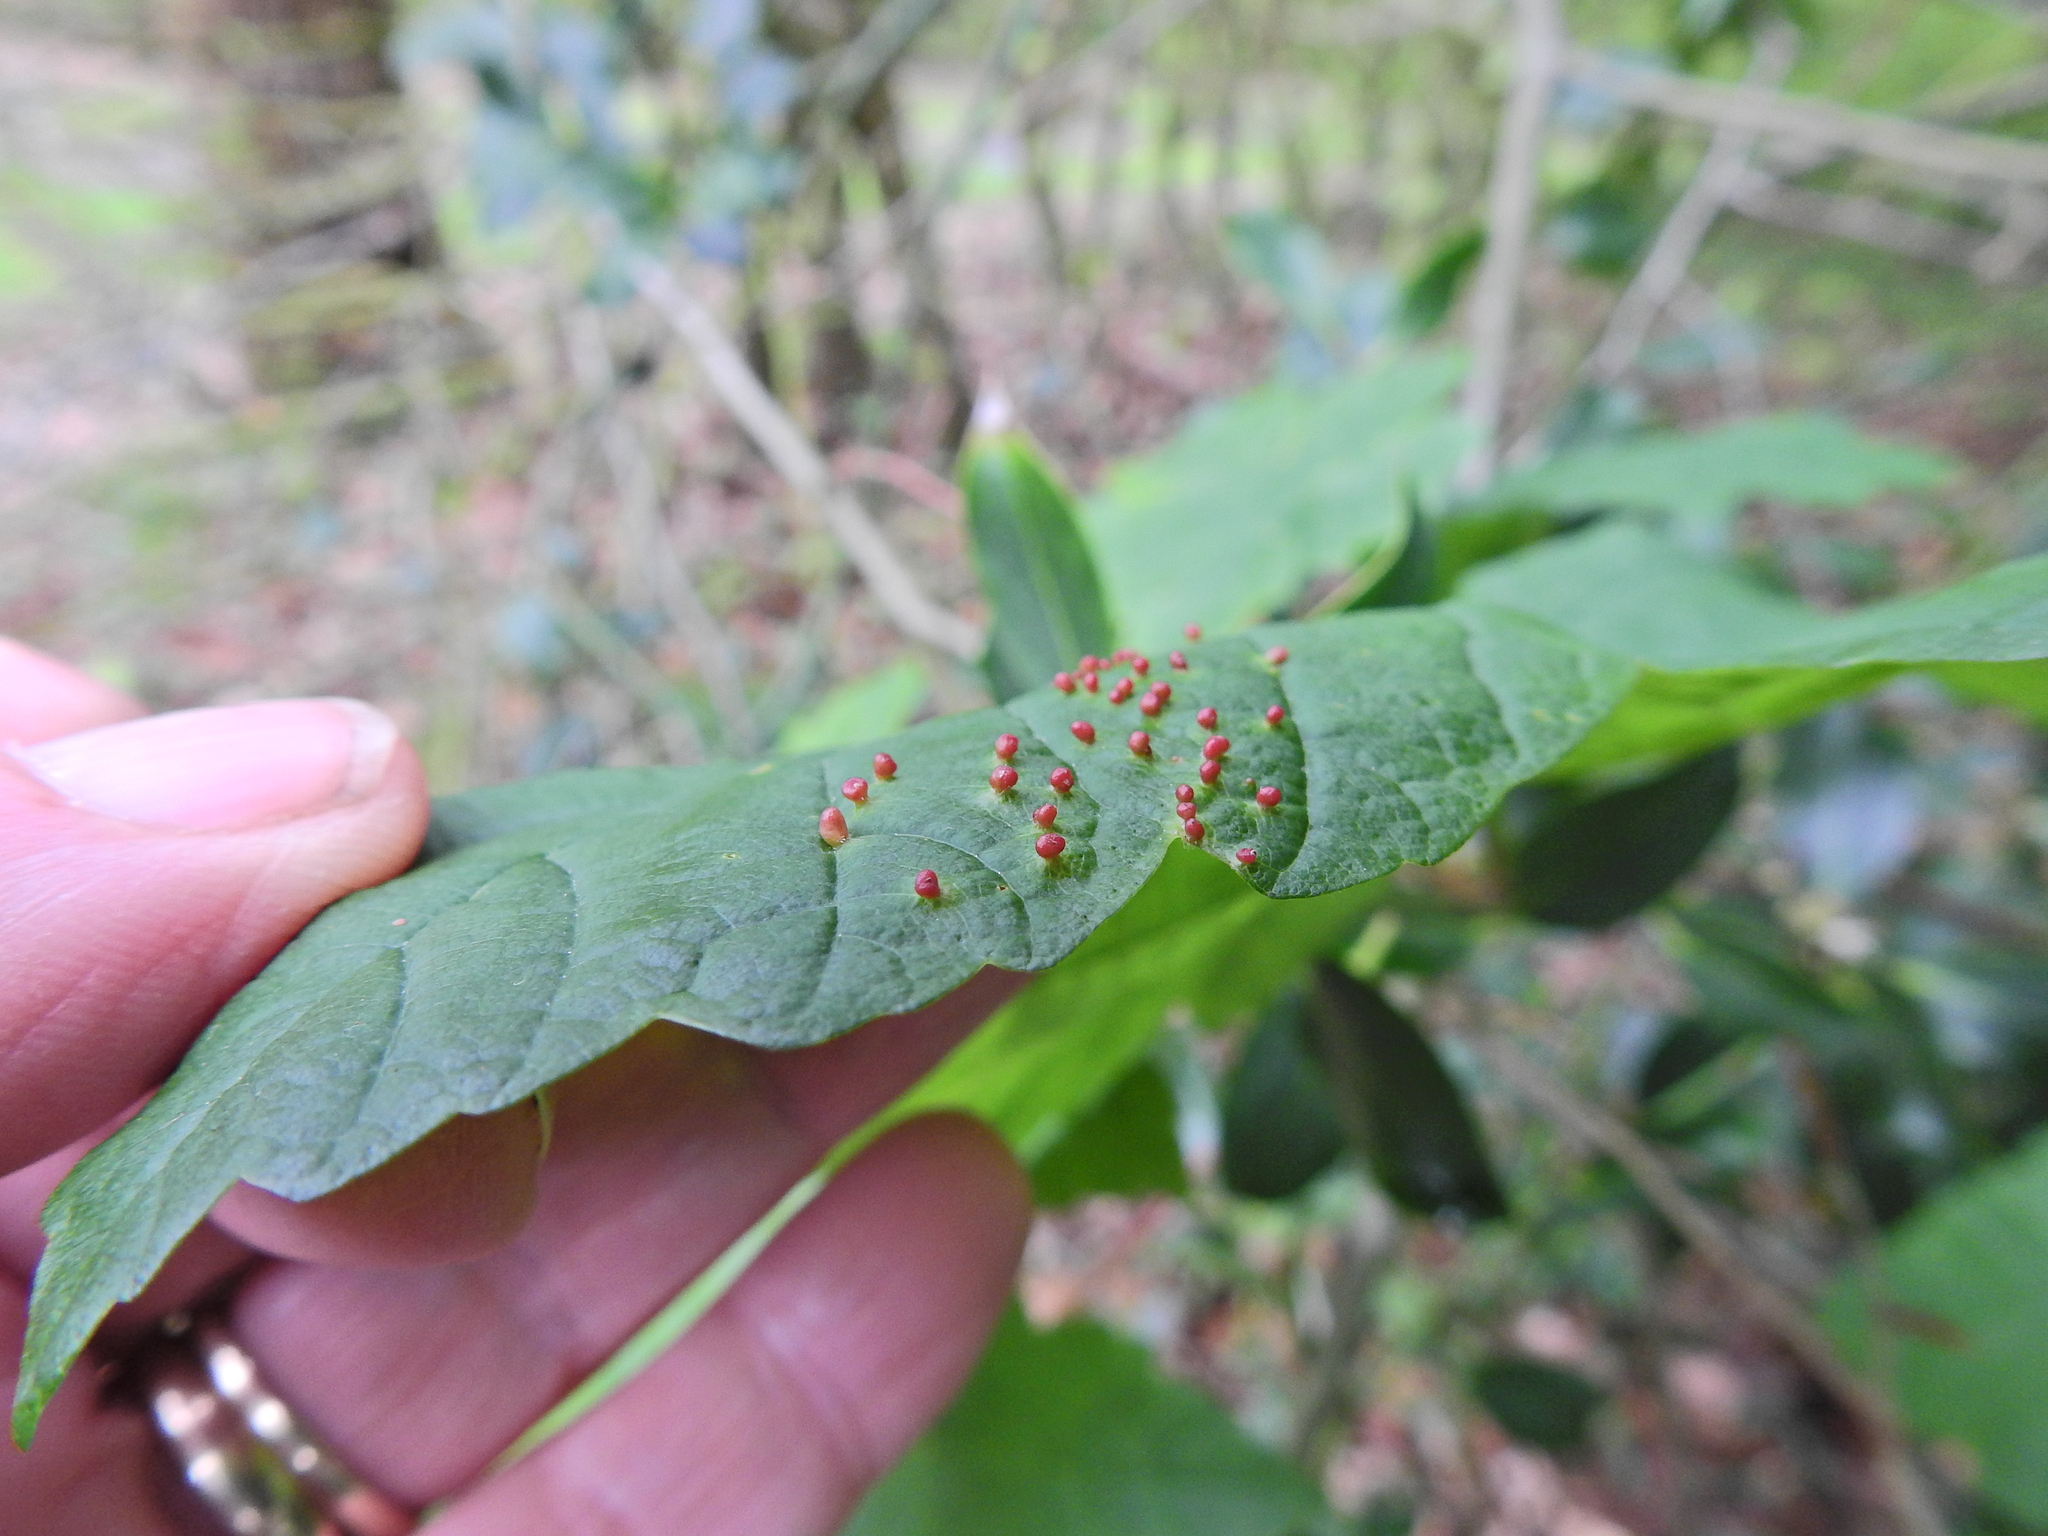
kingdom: Animalia
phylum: Arthropoda
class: Arachnida
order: Trombidiformes
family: Eriophyidae
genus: Aceria
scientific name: Aceria cephaloneus
